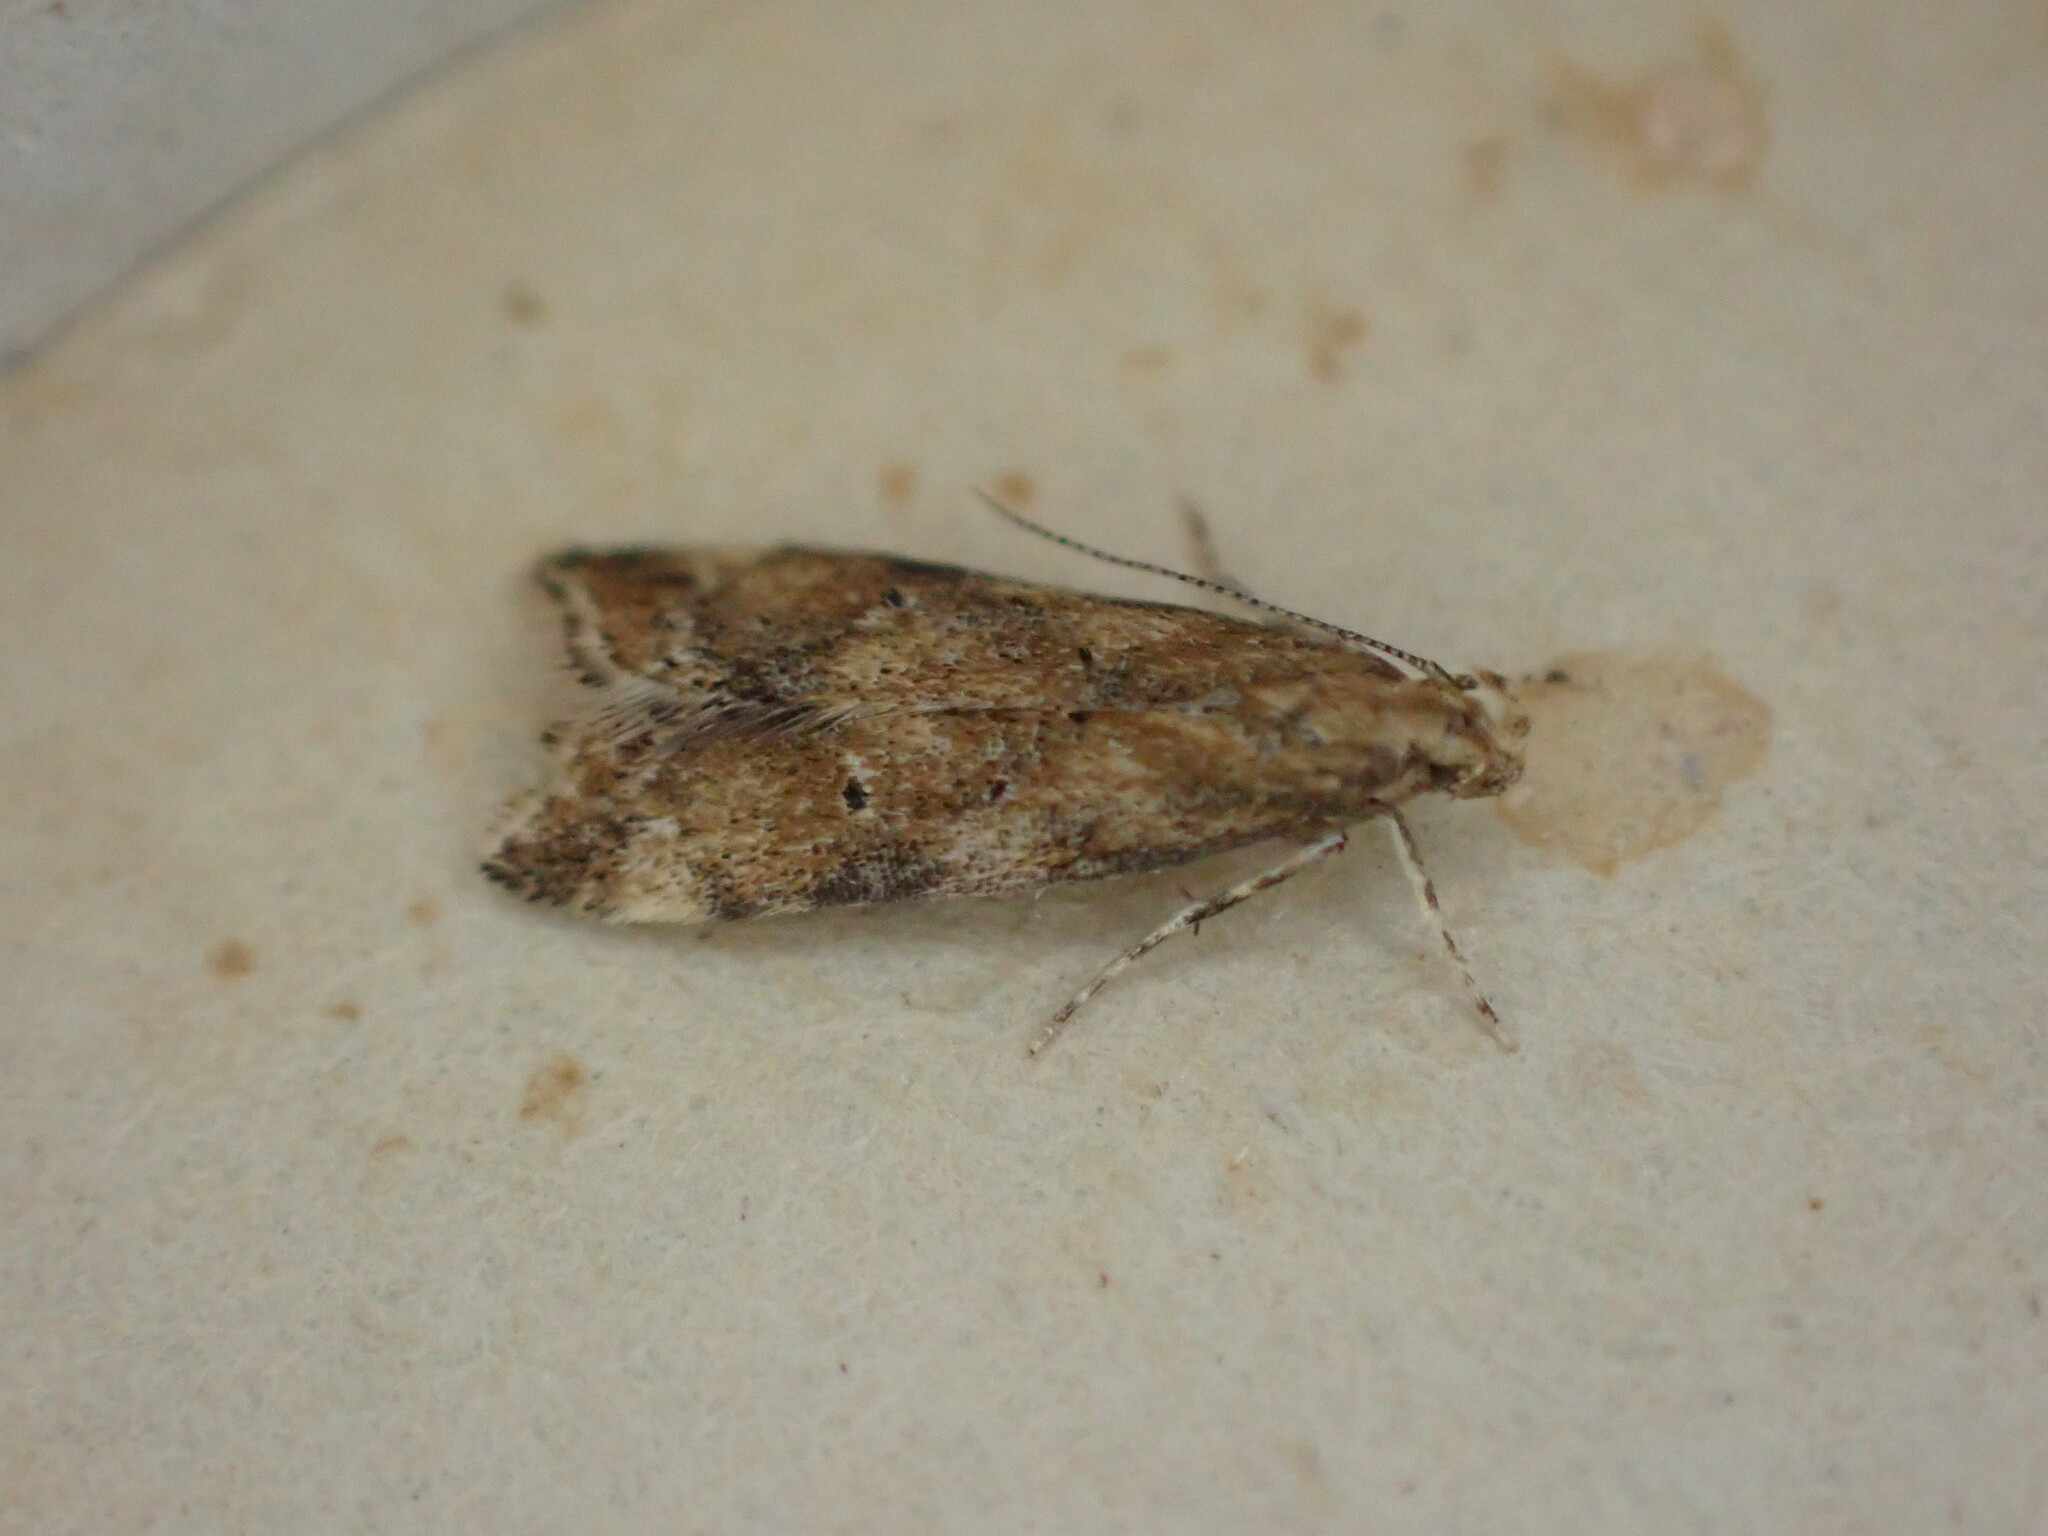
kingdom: Animalia
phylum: Arthropoda
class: Insecta
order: Lepidoptera
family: Gelechiidae
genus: Brachmia
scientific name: Brachmia blandella
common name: Gorse crest
